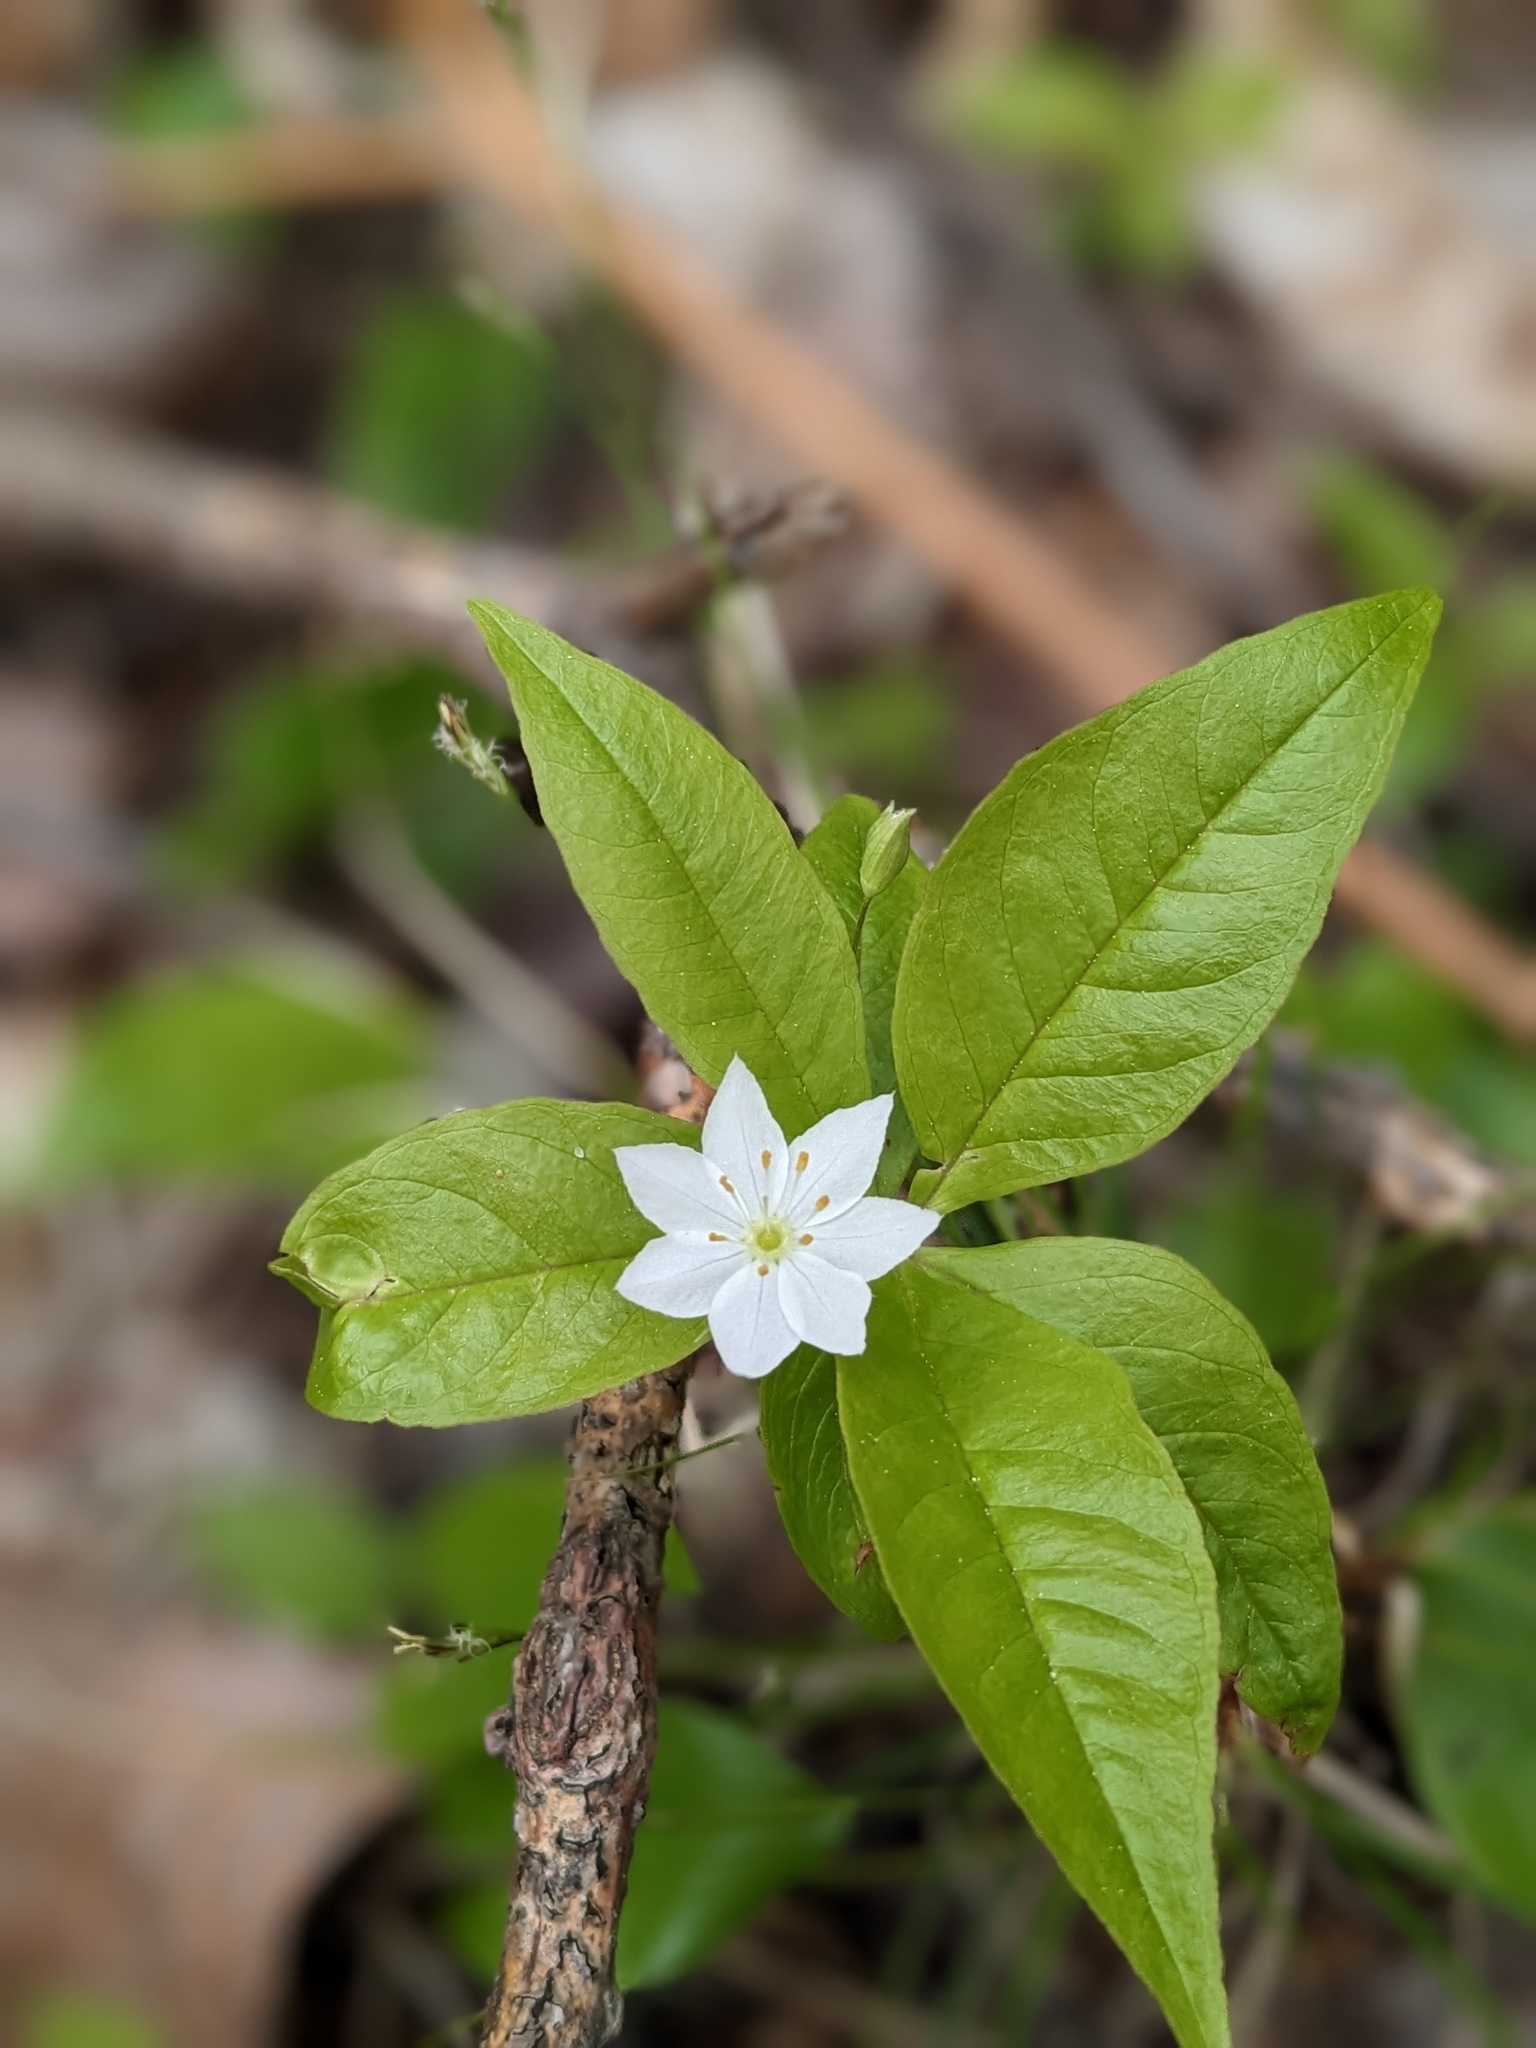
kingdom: Plantae
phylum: Tracheophyta
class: Magnoliopsida
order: Ericales
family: Primulaceae
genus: Lysimachia
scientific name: Lysimachia borealis
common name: American starflower
